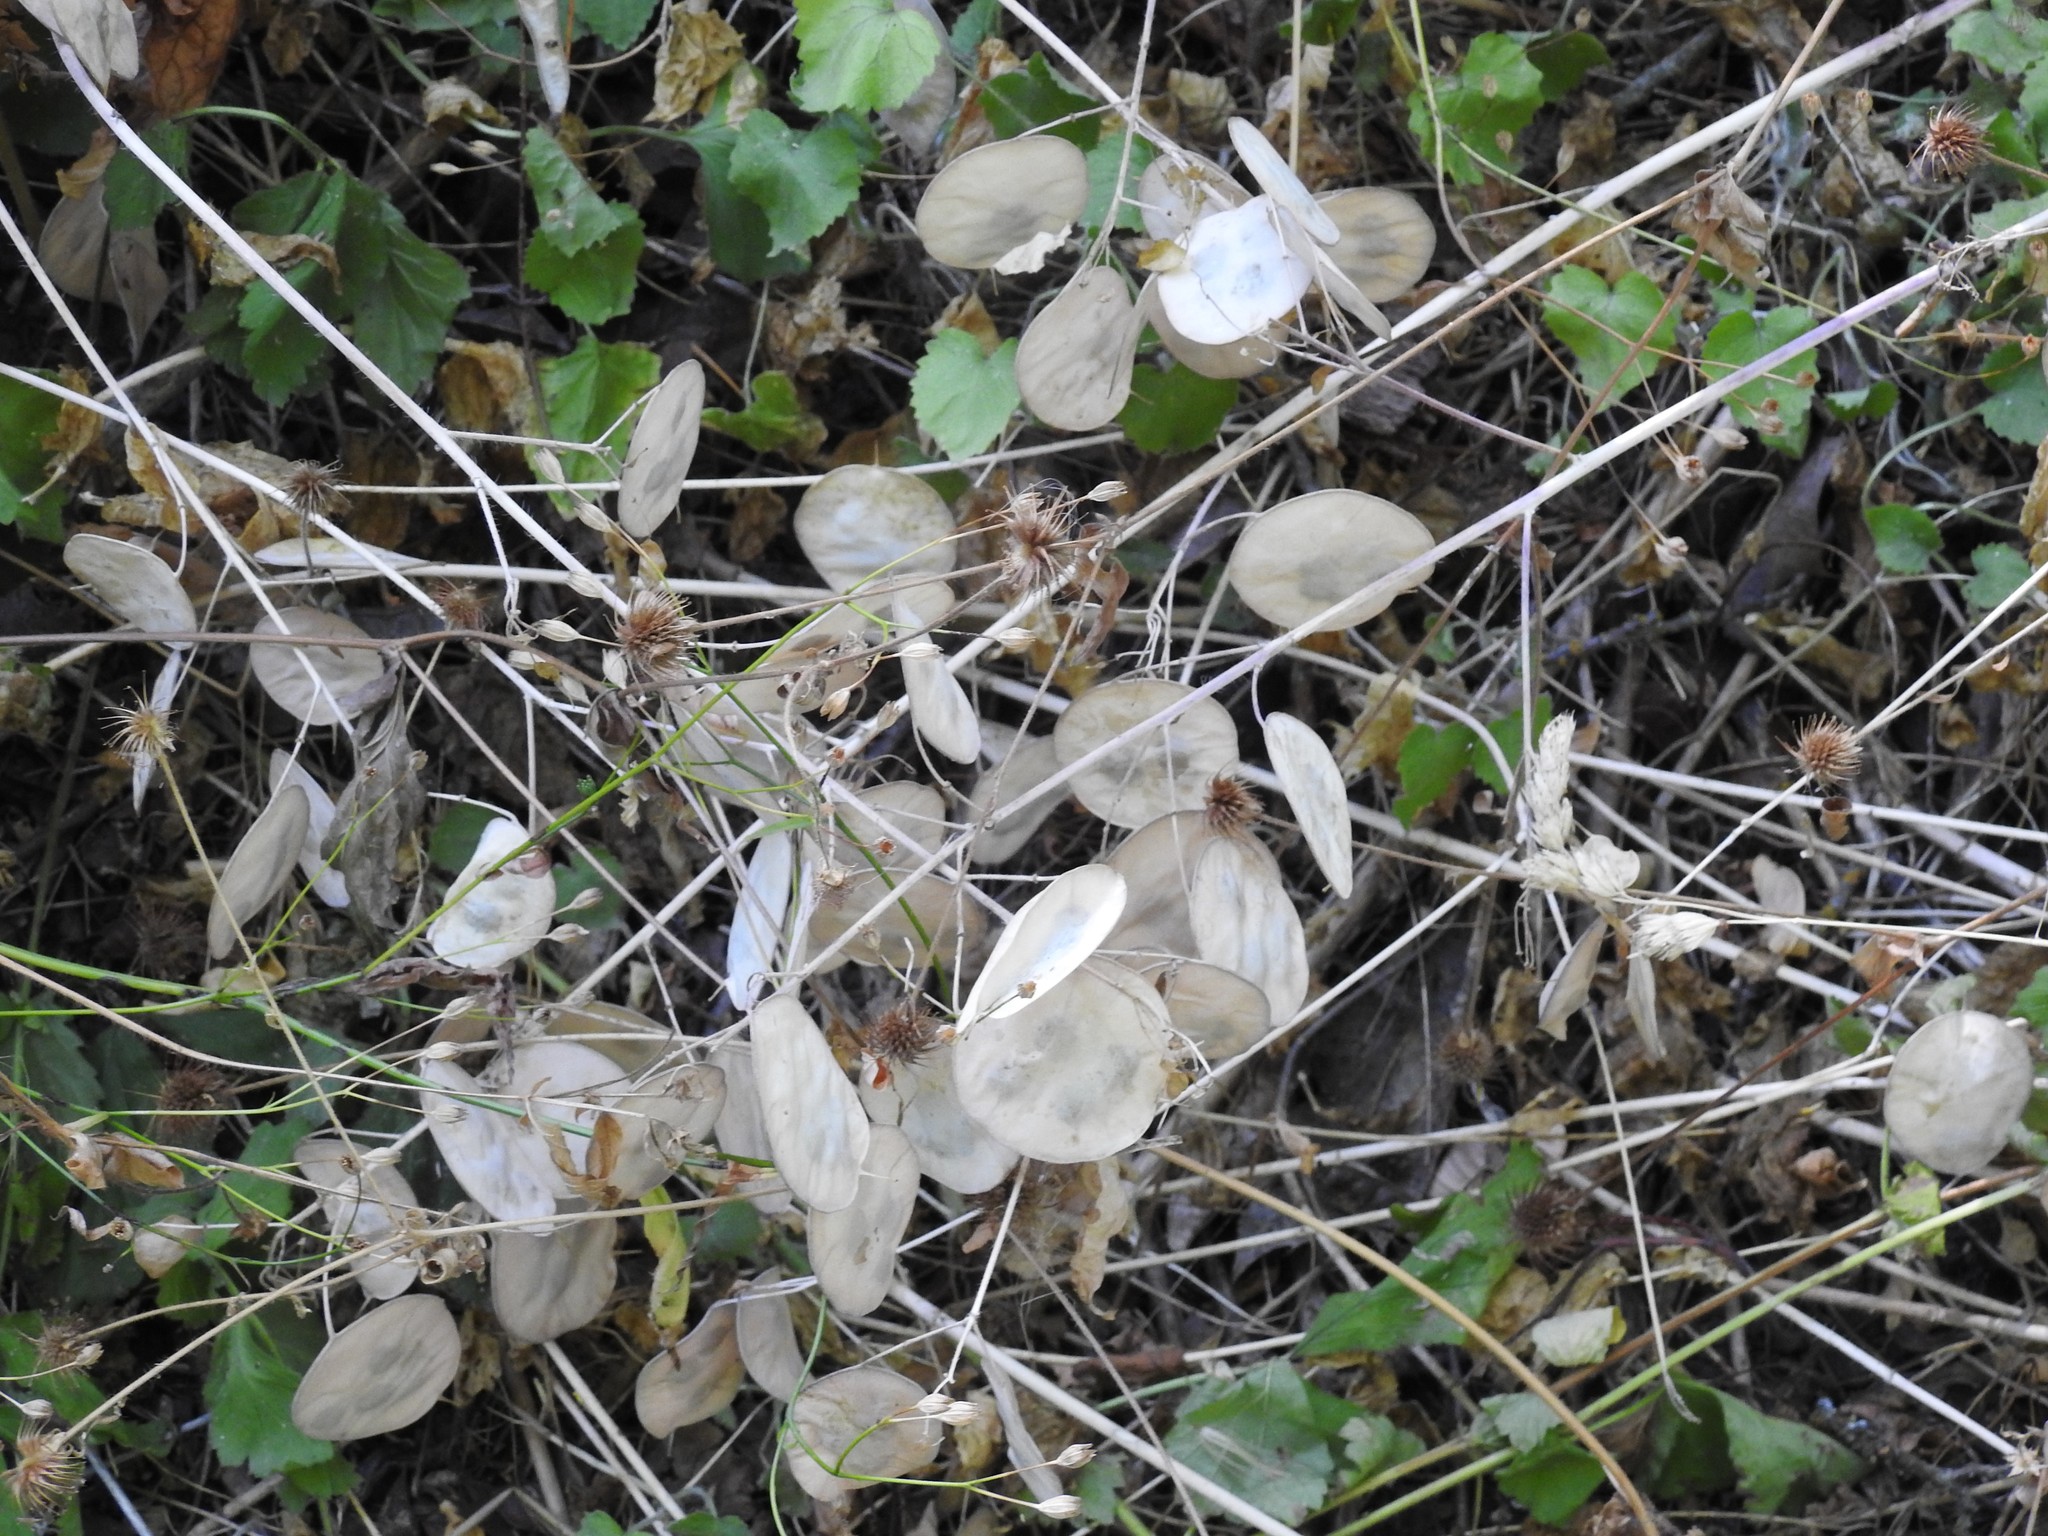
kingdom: Plantae
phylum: Tracheophyta
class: Magnoliopsida
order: Brassicales
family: Brassicaceae
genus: Lunaria
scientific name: Lunaria annua
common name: Honesty
